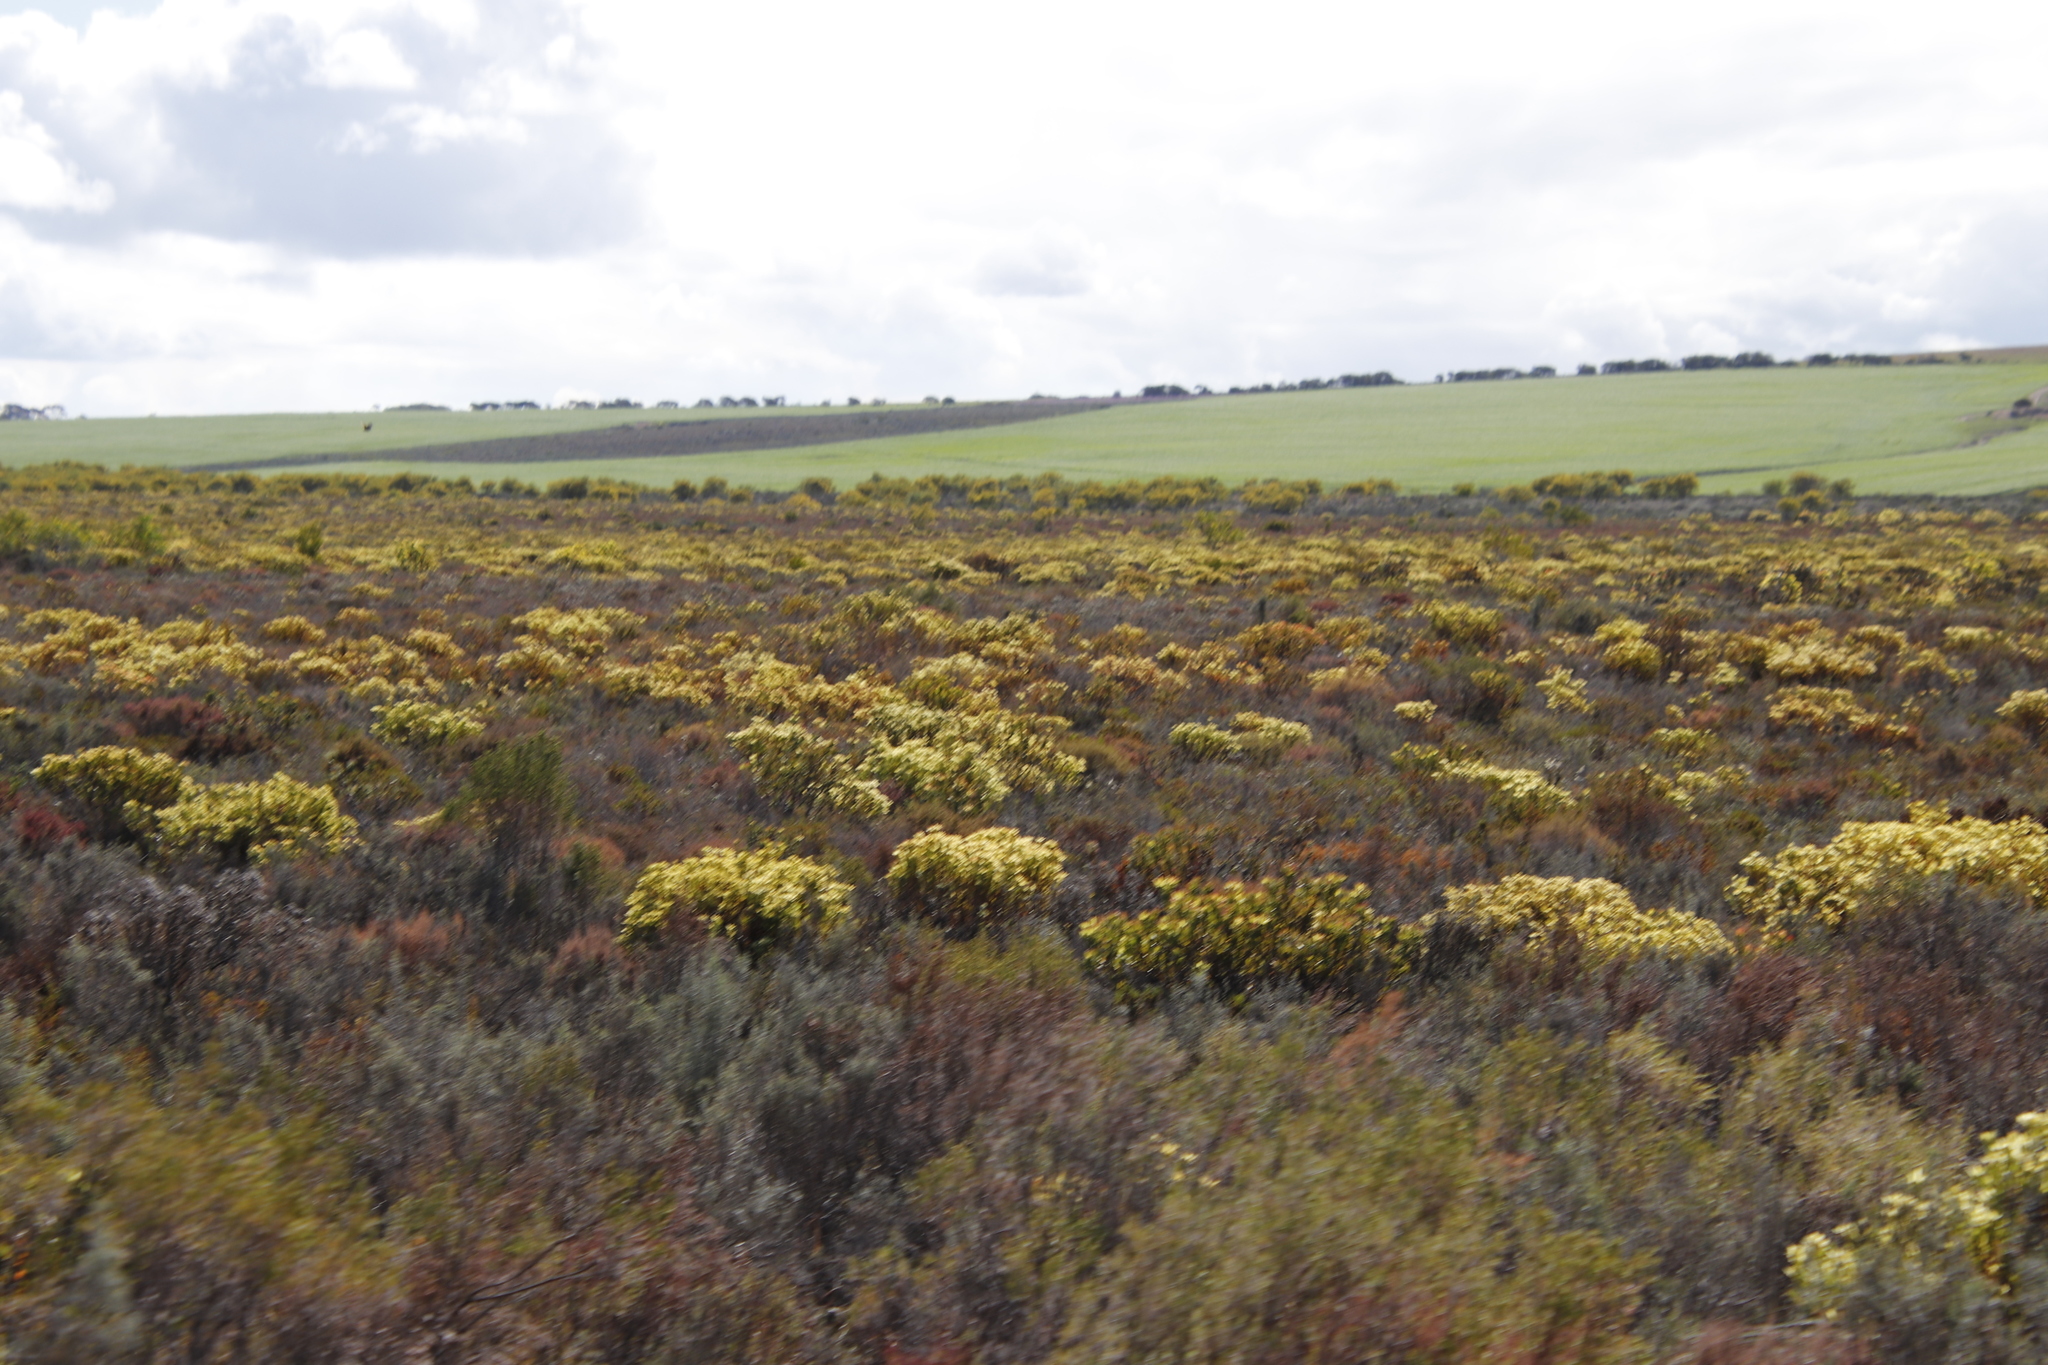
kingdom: Plantae
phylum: Tracheophyta
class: Magnoliopsida
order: Proteales
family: Proteaceae
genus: Leucadendron
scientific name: Leucadendron modestum
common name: Rough-leaf conebush
